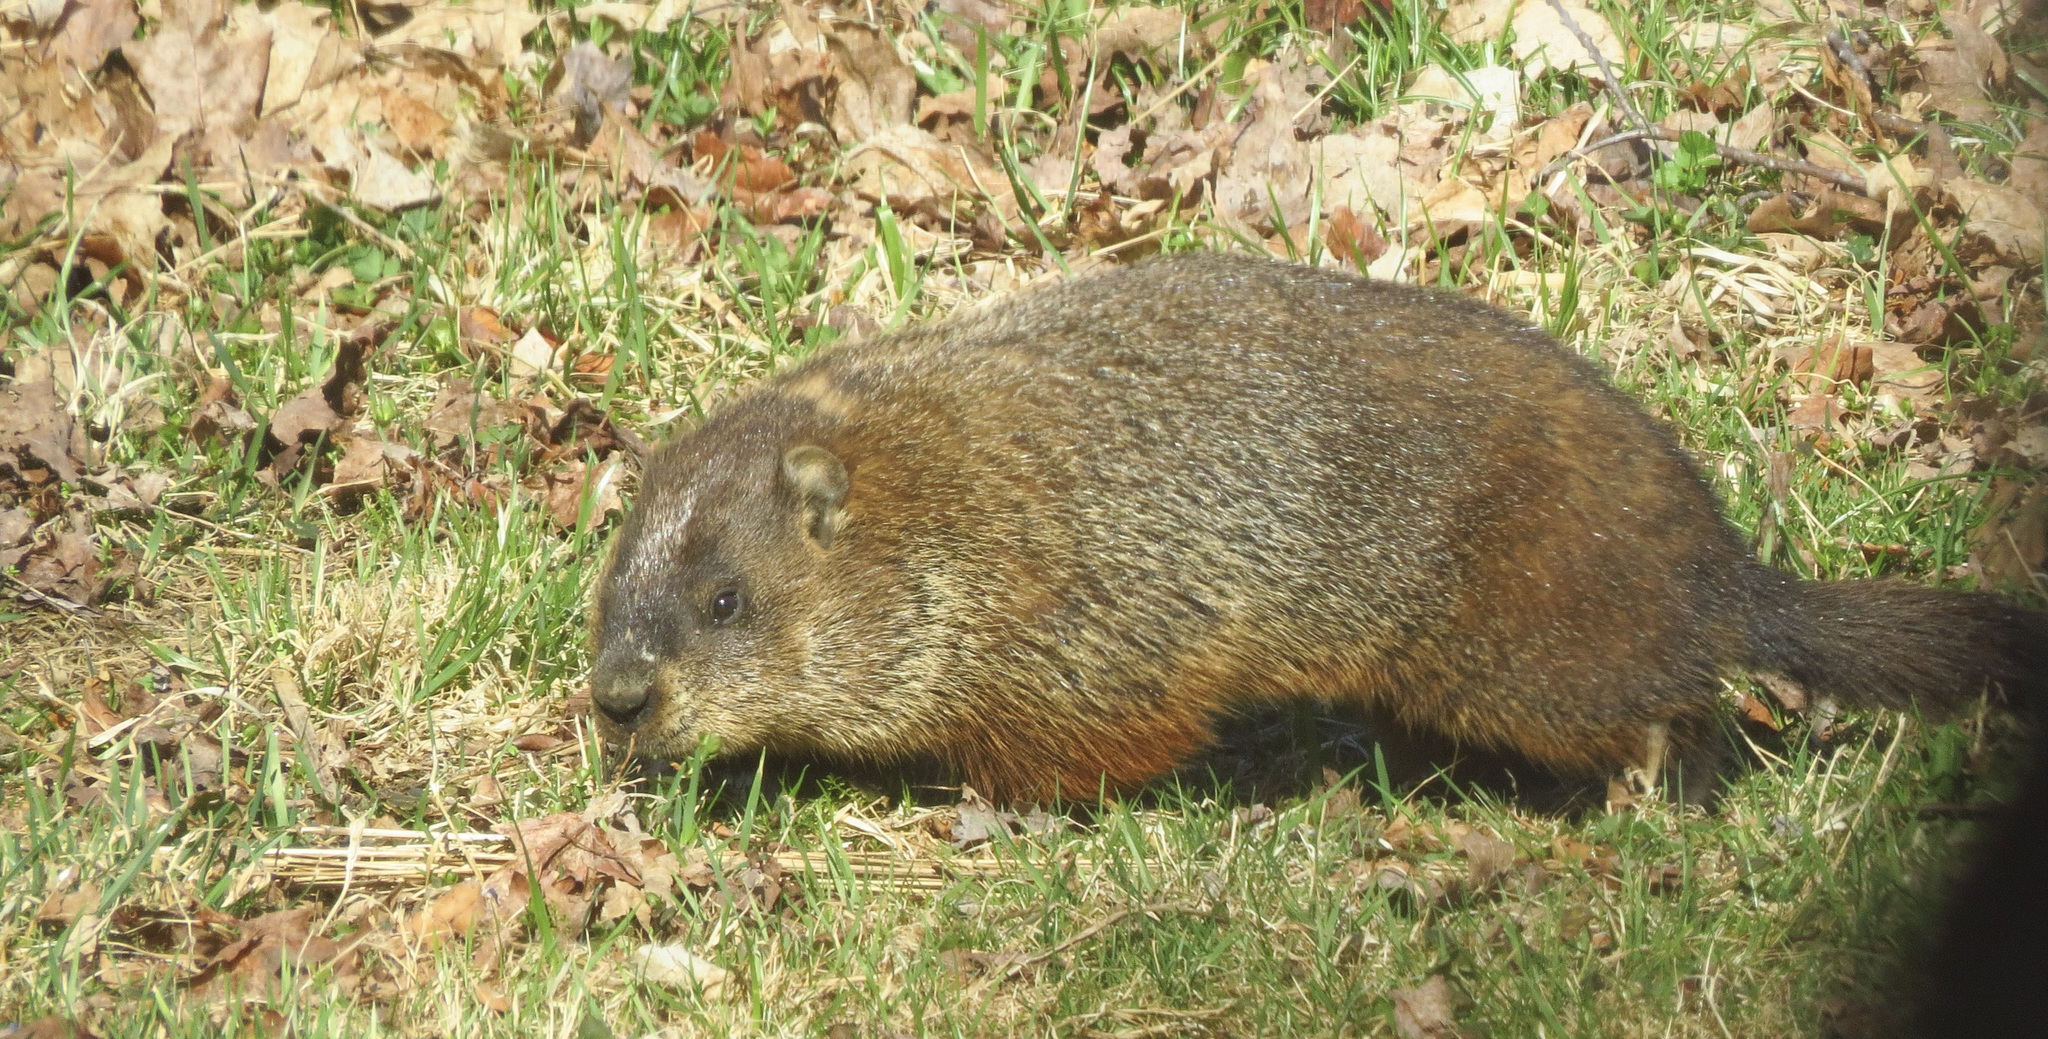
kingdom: Animalia
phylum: Chordata
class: Mammalia
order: Rodentia
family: Sciuridae
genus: Marmota
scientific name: Marmota monax
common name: Groundhog
